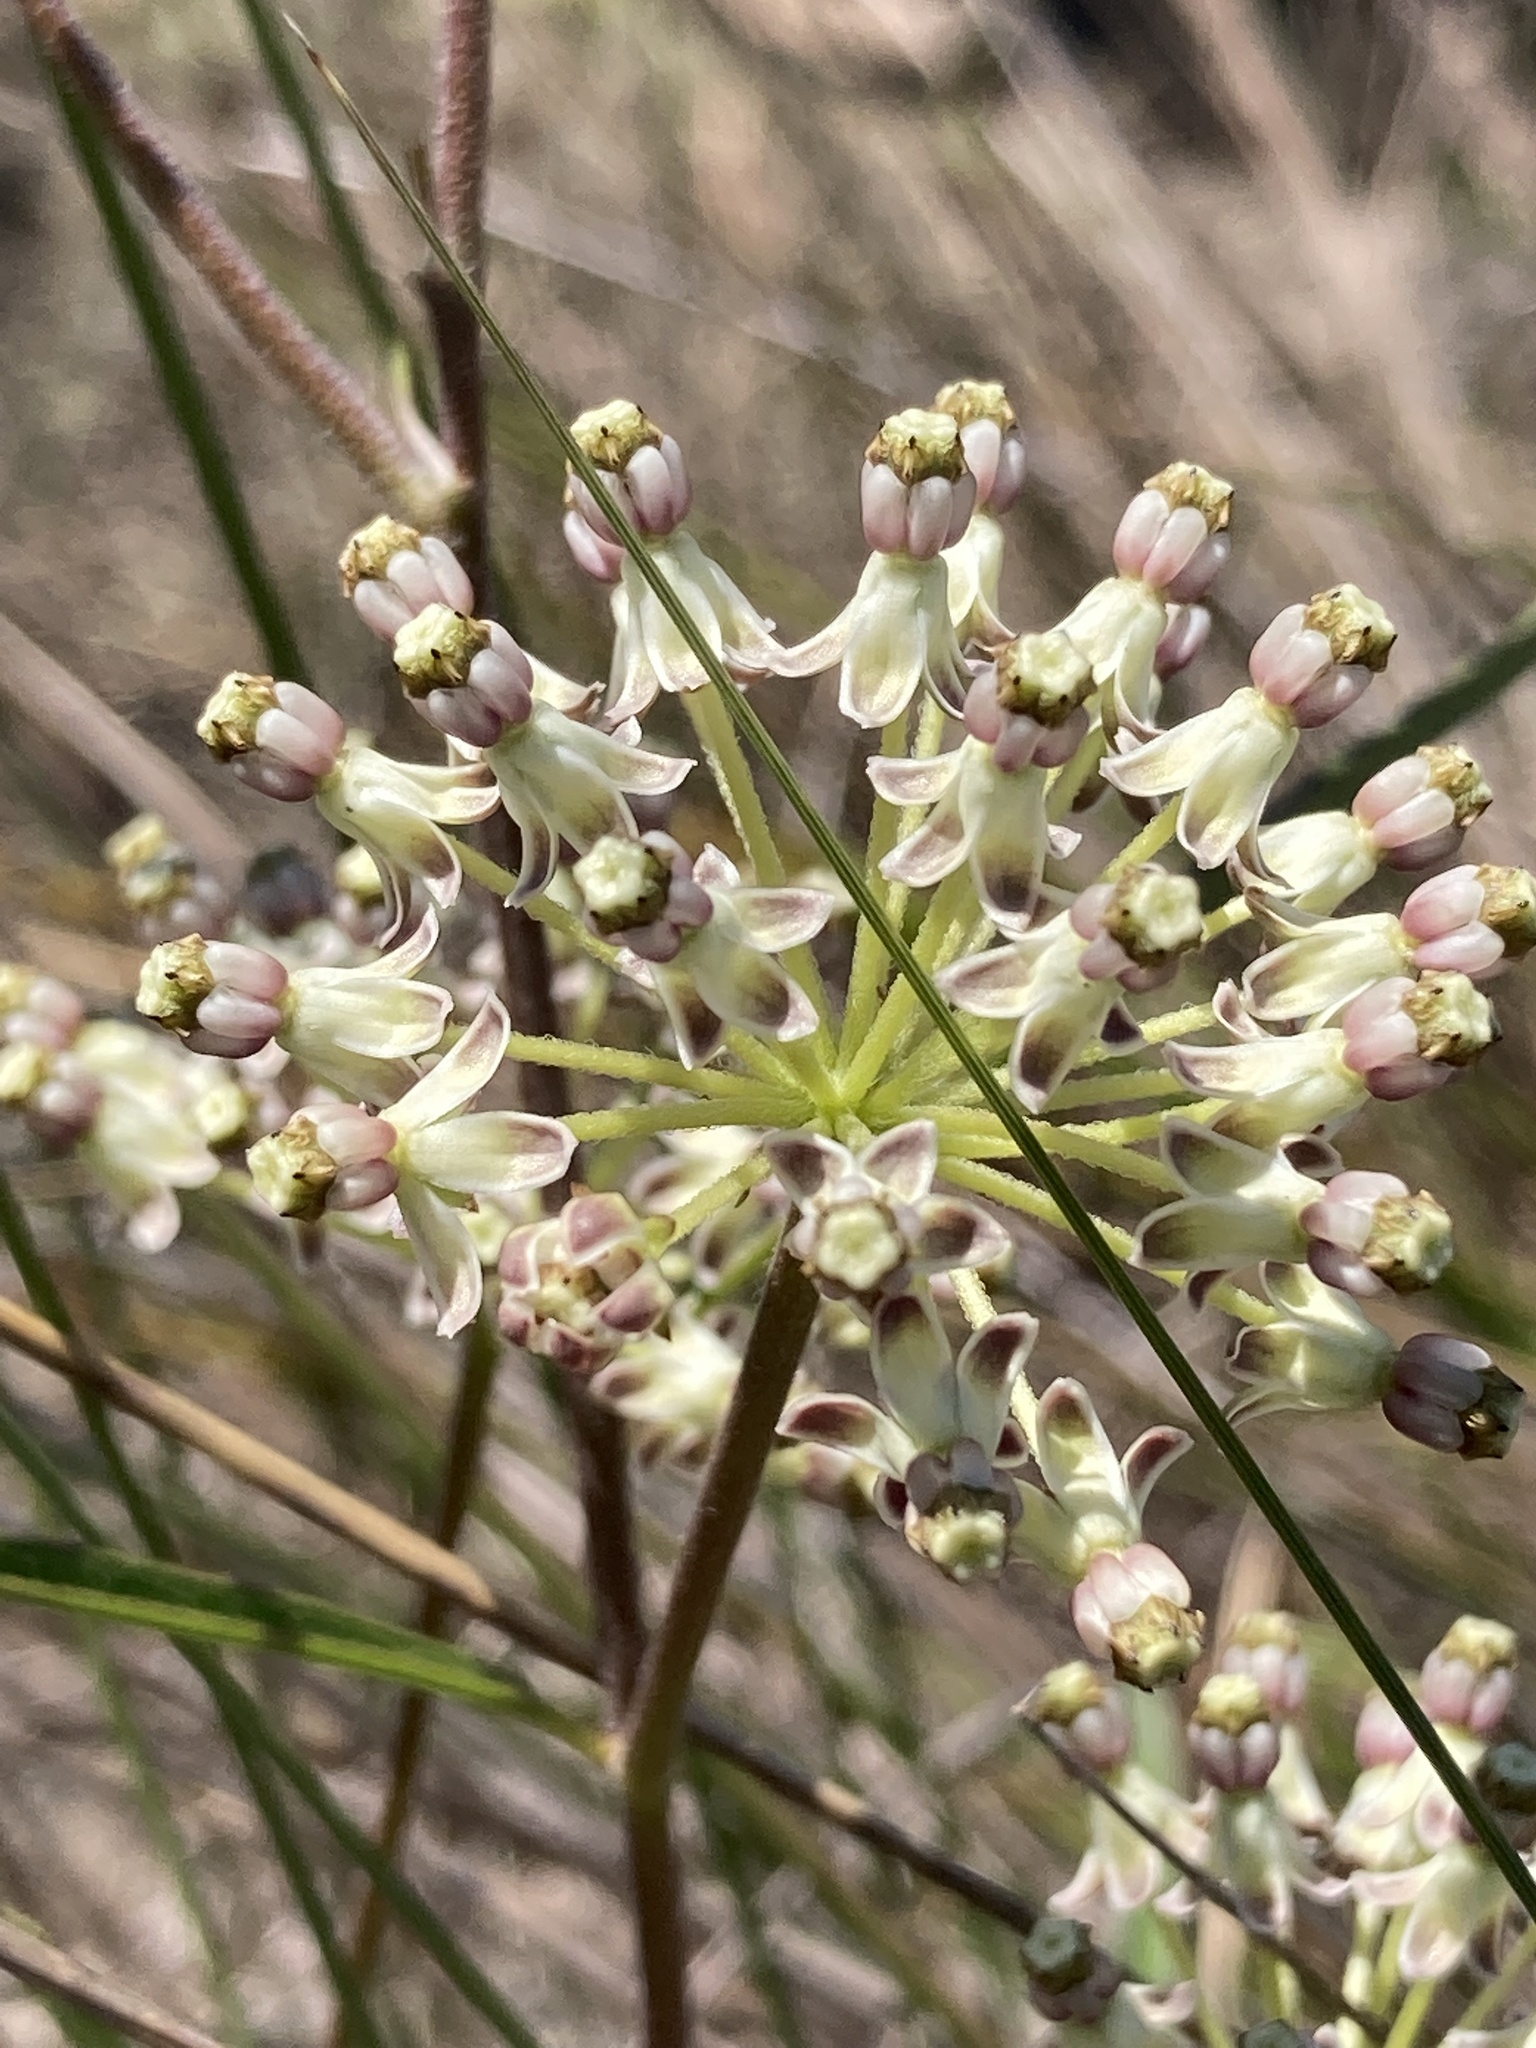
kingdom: Plantae
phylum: Tracheophyta
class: Magnoliopsida
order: Gentianales
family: Apocynaceae
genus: Asclepias
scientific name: Asclepias longifolia
